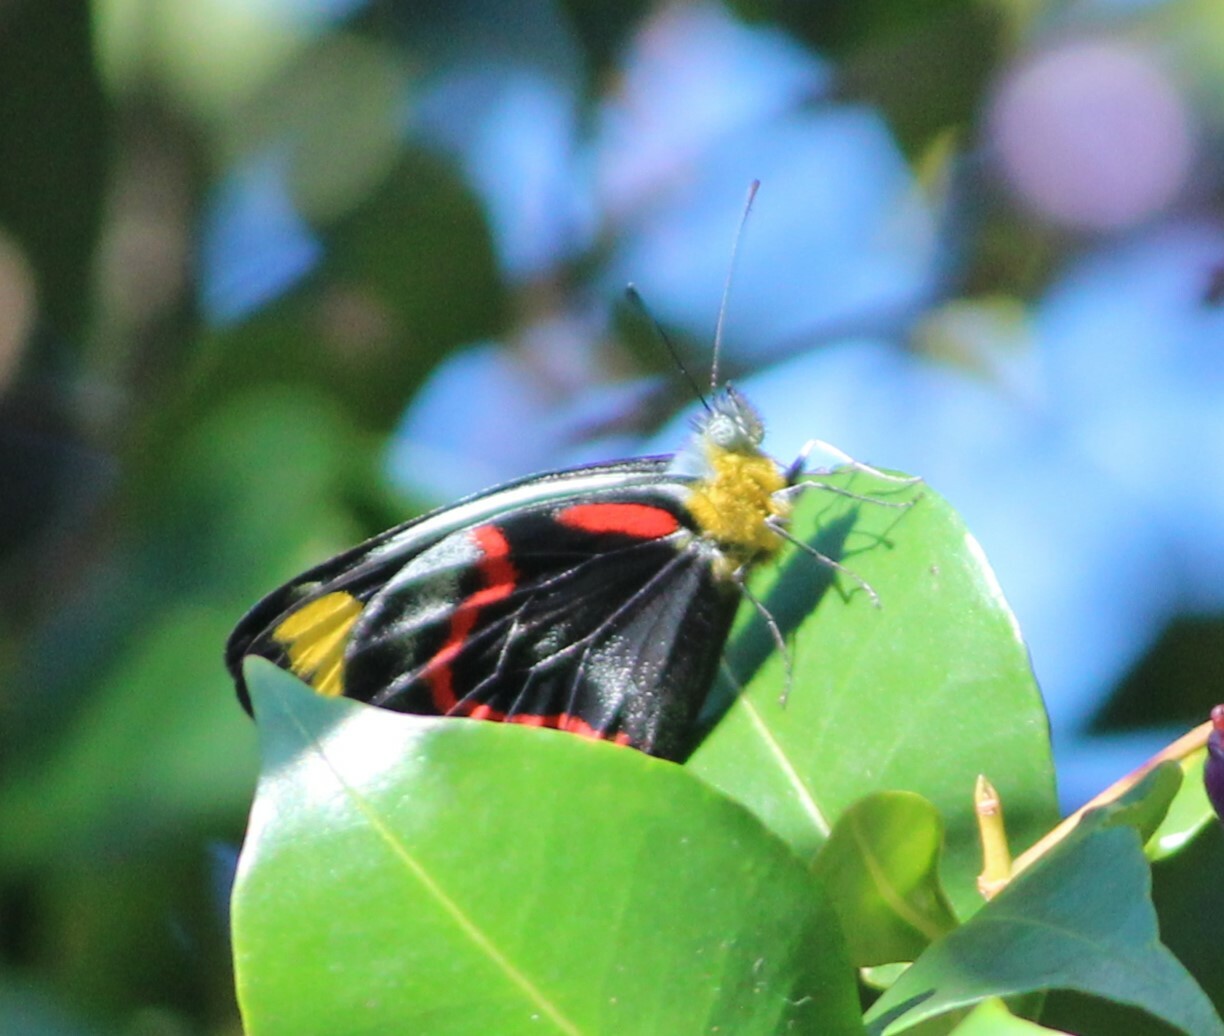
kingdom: Animalia
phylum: Arthropoda
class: Insecta
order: Lepidoptera
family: Pieridae
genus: Delias
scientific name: Delias nigrina
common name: Black jezebel
